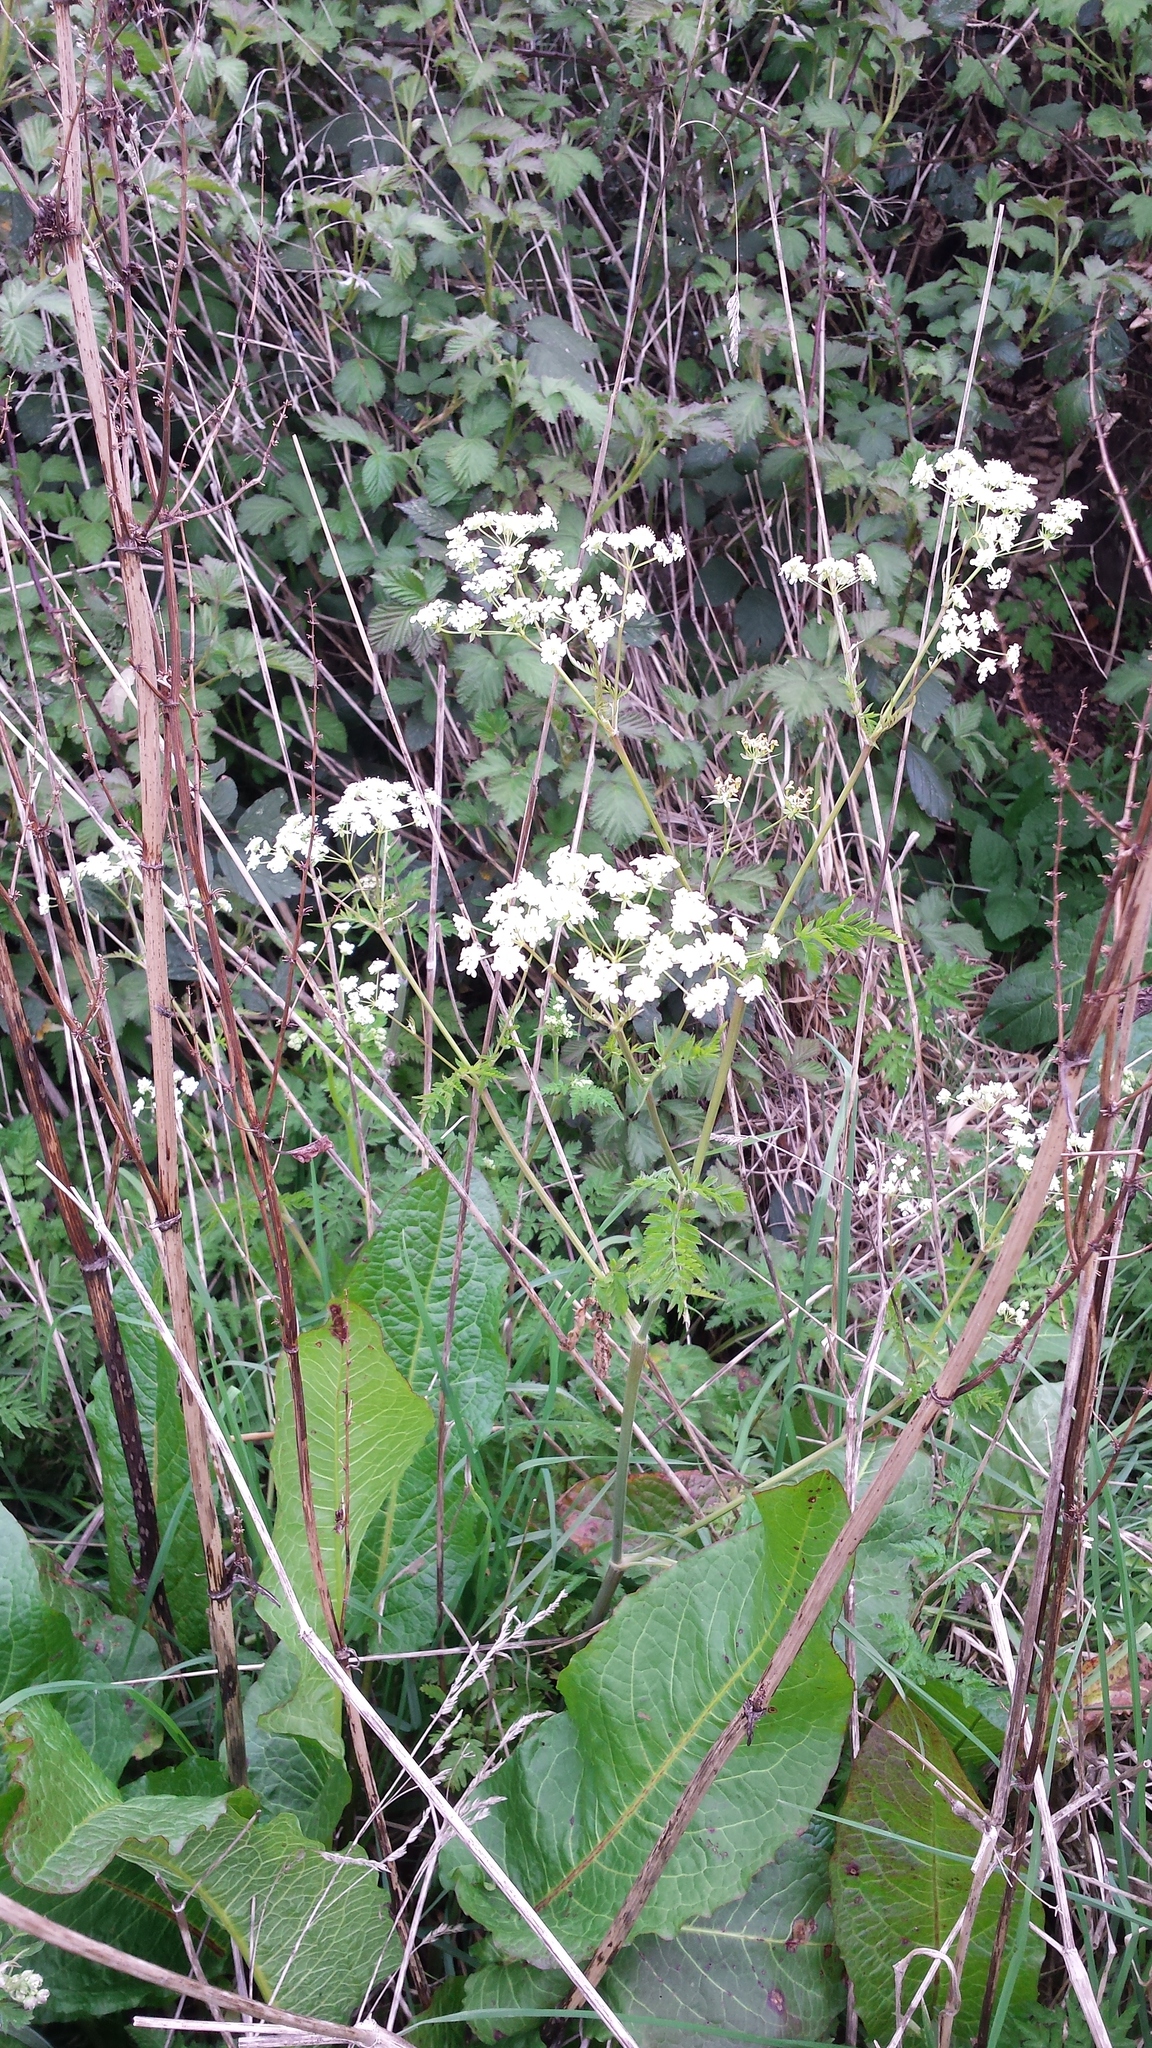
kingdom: Plantae
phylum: Tracheophyta
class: Magnoliopsida
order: Apiales
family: Apiaceae
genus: Anthriscus
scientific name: Anthriscus sylvestris
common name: Cow parsley
